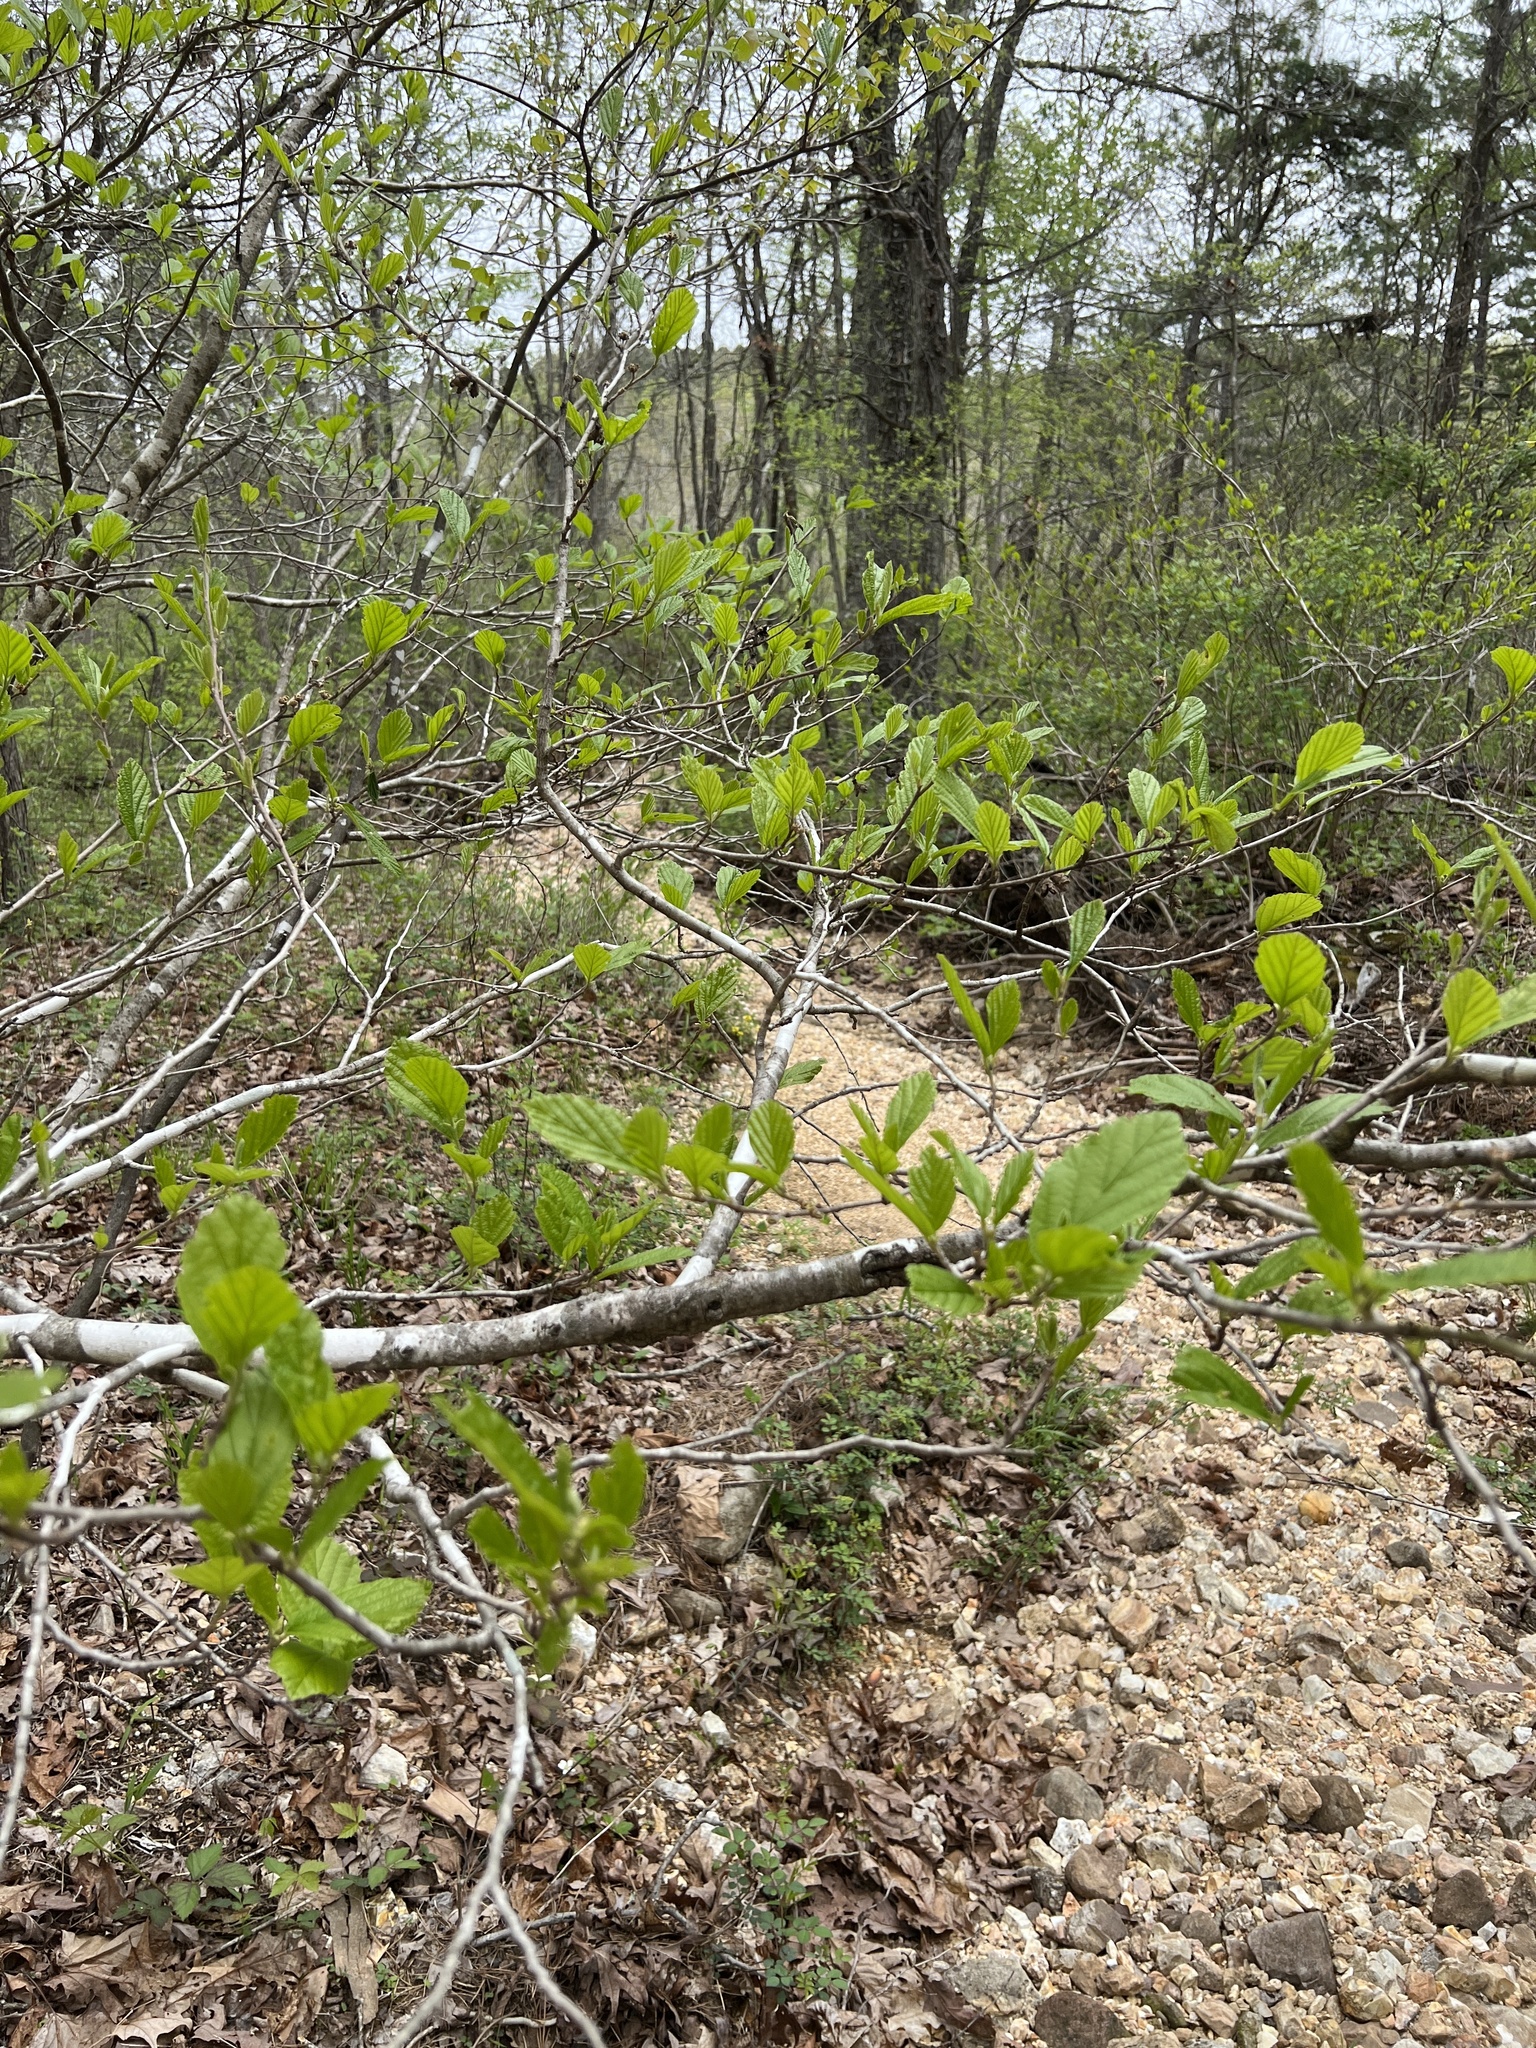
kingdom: Plantae
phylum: Tracheophyta
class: Magnoliopsida
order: Saxifragales
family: Hamamelidaceae
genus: Hamamelis
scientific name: Hamamelis vernalis
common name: Ozark witch-hazel
